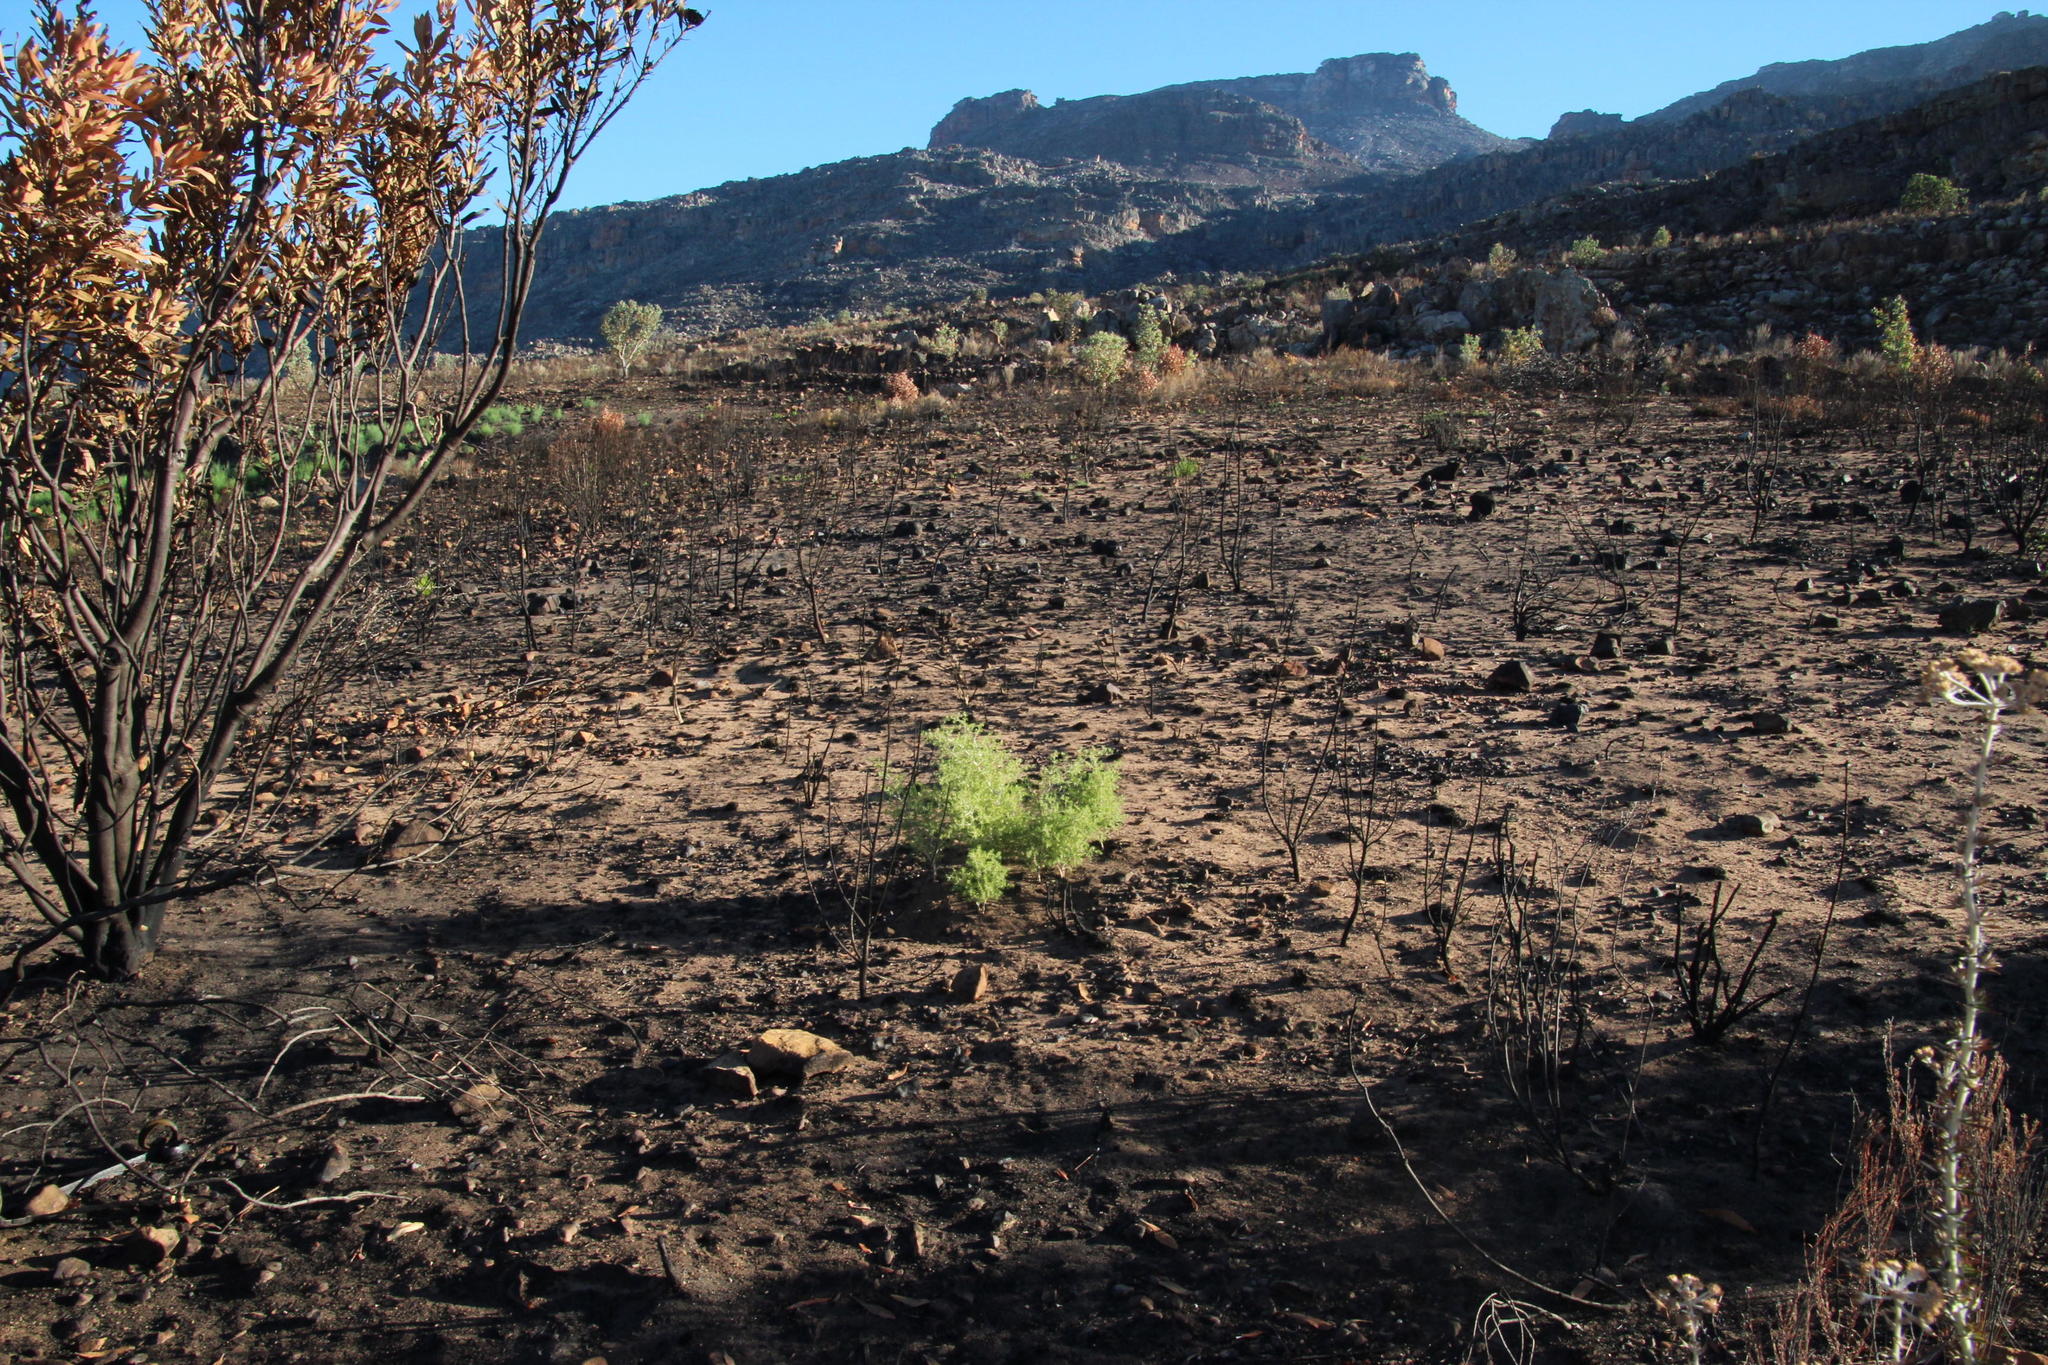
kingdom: Plantae
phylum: Tracheophyta
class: Liliopsida
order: Asparagales
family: Asparagaceae
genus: Asparagus
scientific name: Asparagus lignosus
